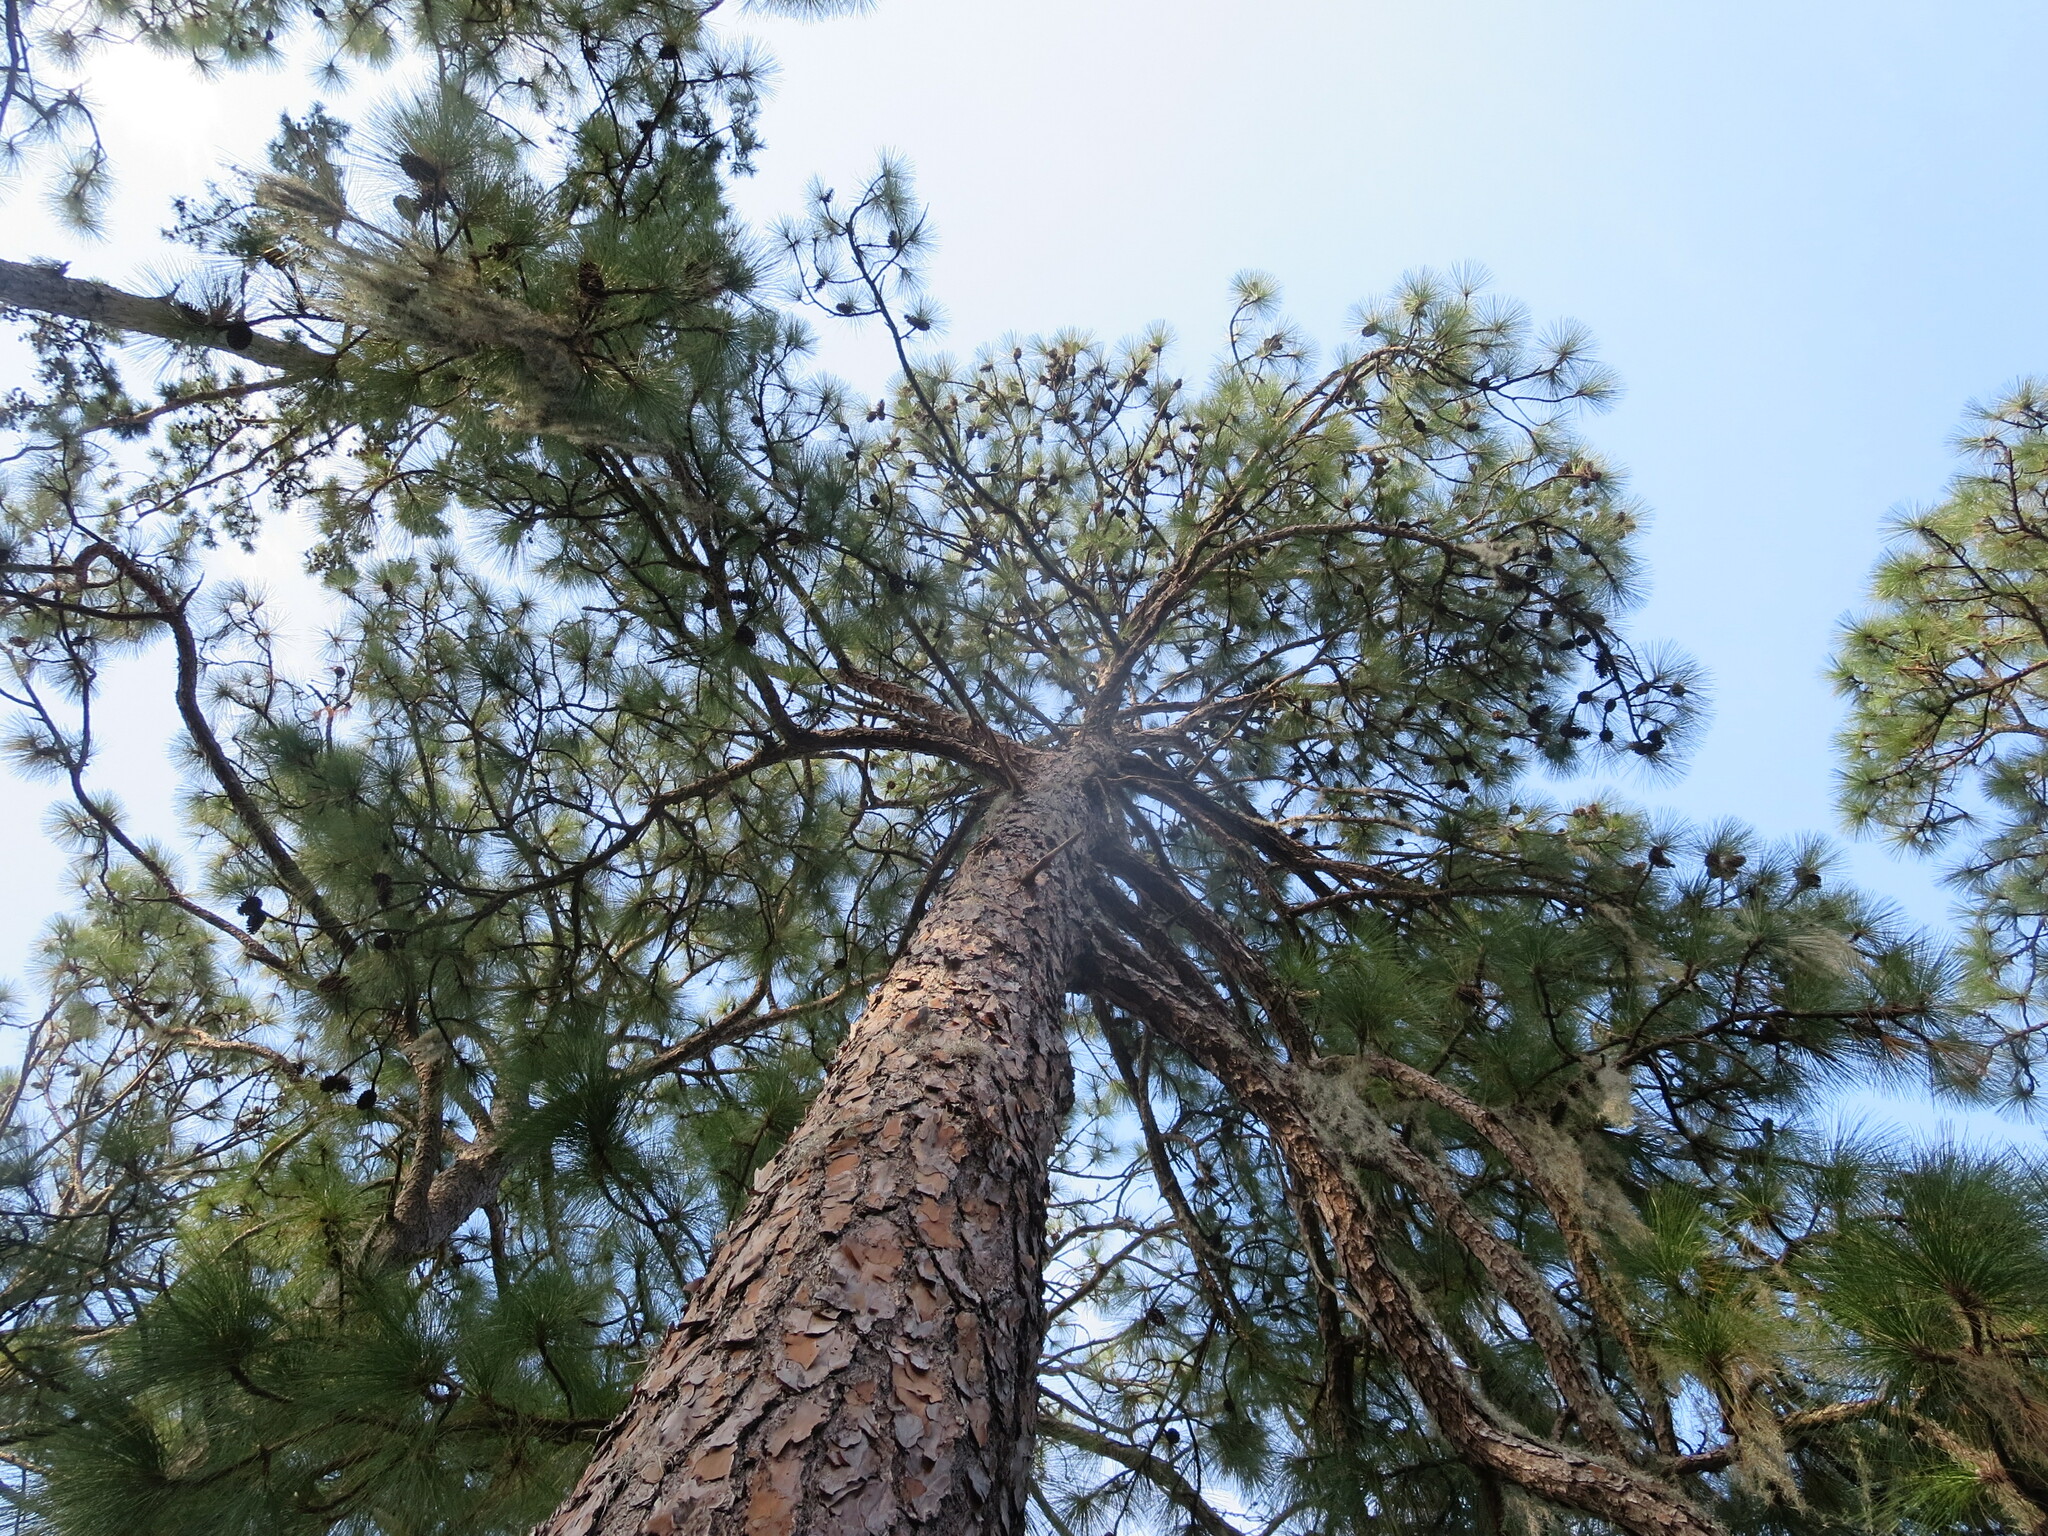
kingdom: Plantae
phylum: Tracheophyta
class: Pinopsida
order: Pinales
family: Pinaceae
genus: Pinus
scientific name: Pinus palustris
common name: Longleaf pine
